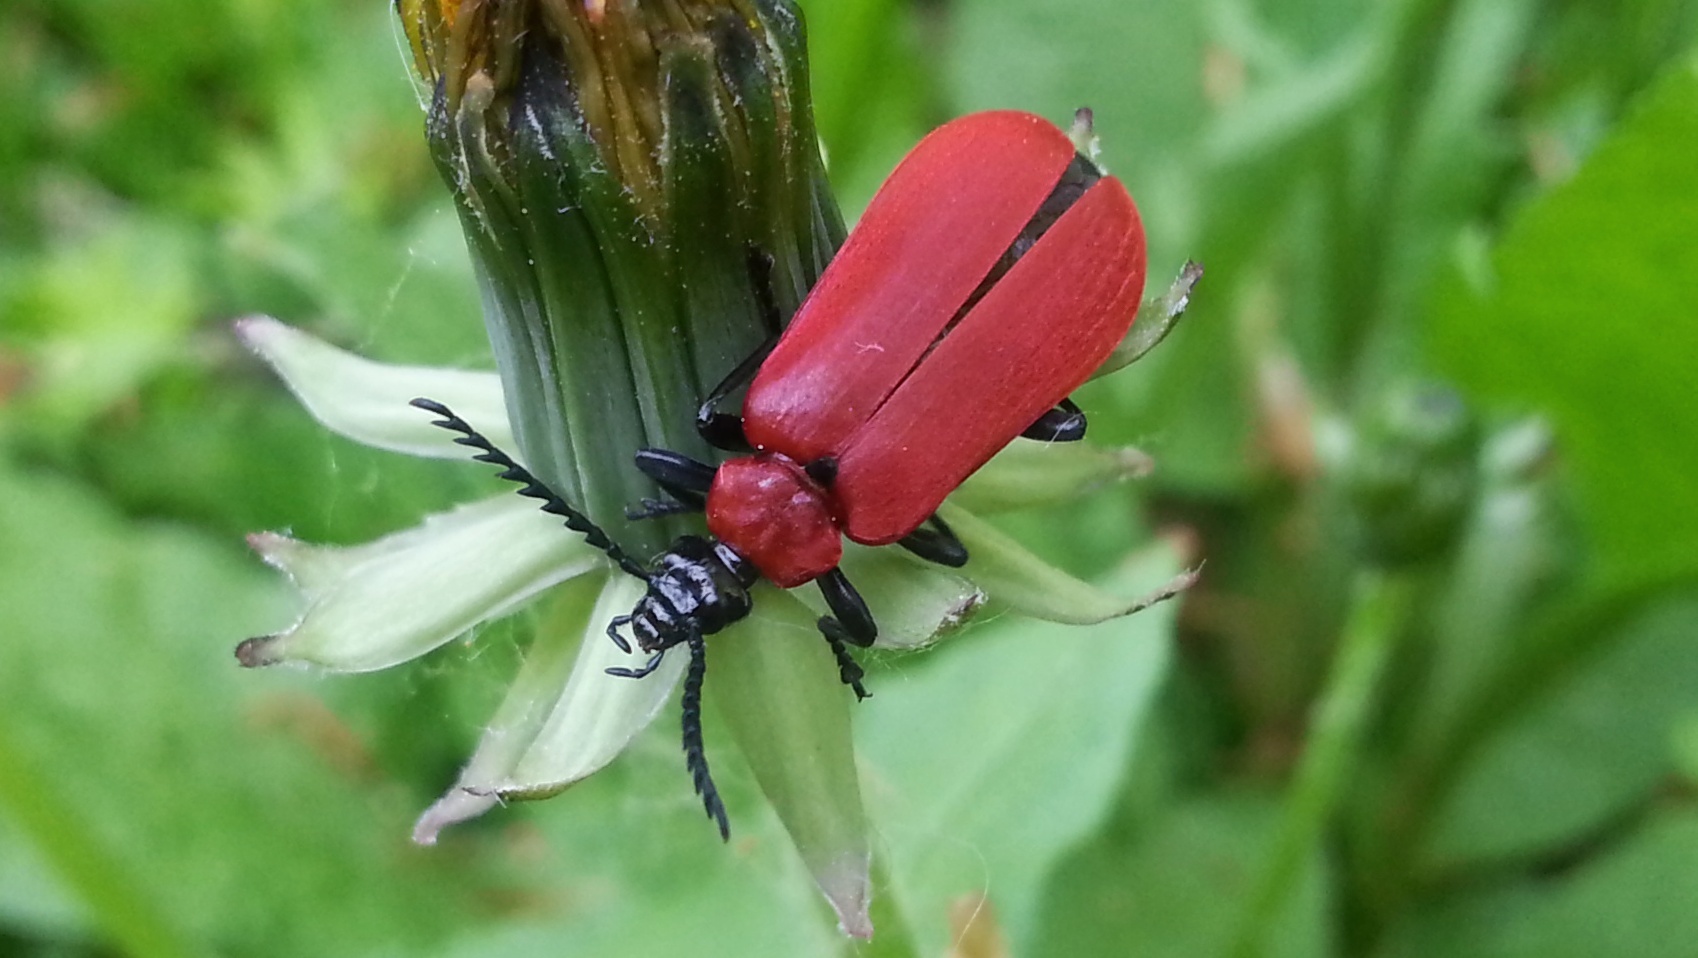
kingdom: Animalia
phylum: Arthropoda
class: Insecta
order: Coleoptera
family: Pyrochroidae
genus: Pyrochroa
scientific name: Pyrochroa coccinea
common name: Black-headed cardinal beetle
